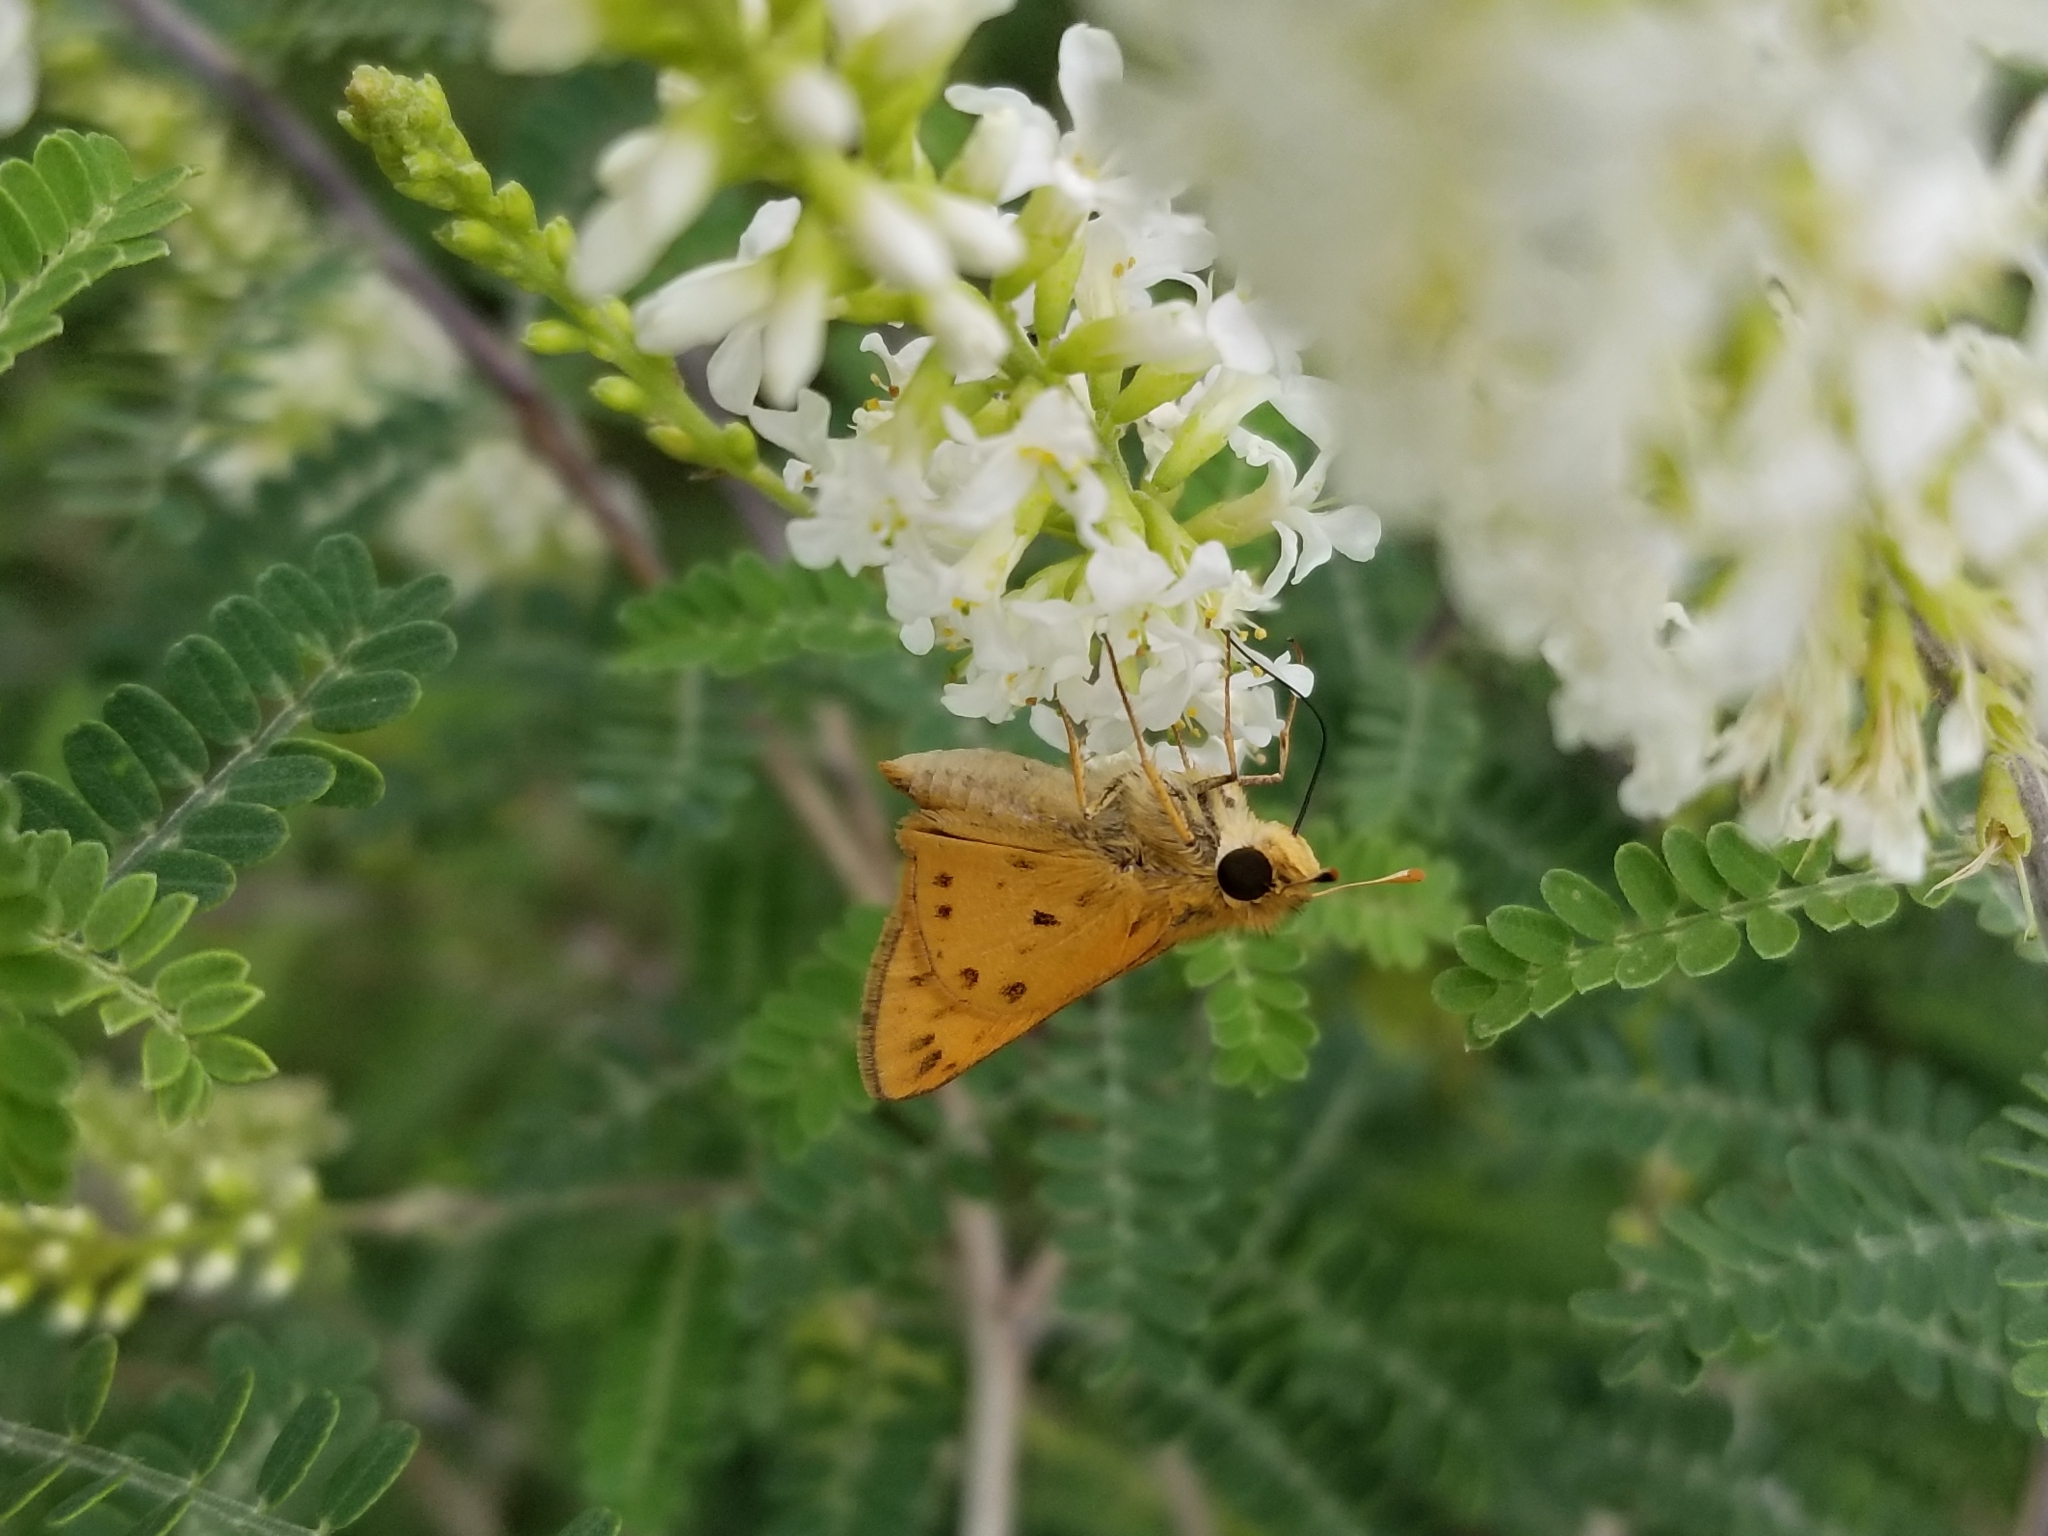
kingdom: Animalia
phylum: Arthropoda
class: Insecta
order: Lepidoptera
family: Hesperiidae
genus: Hylephila
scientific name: Hylephila phyleus
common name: Fiery skipper
